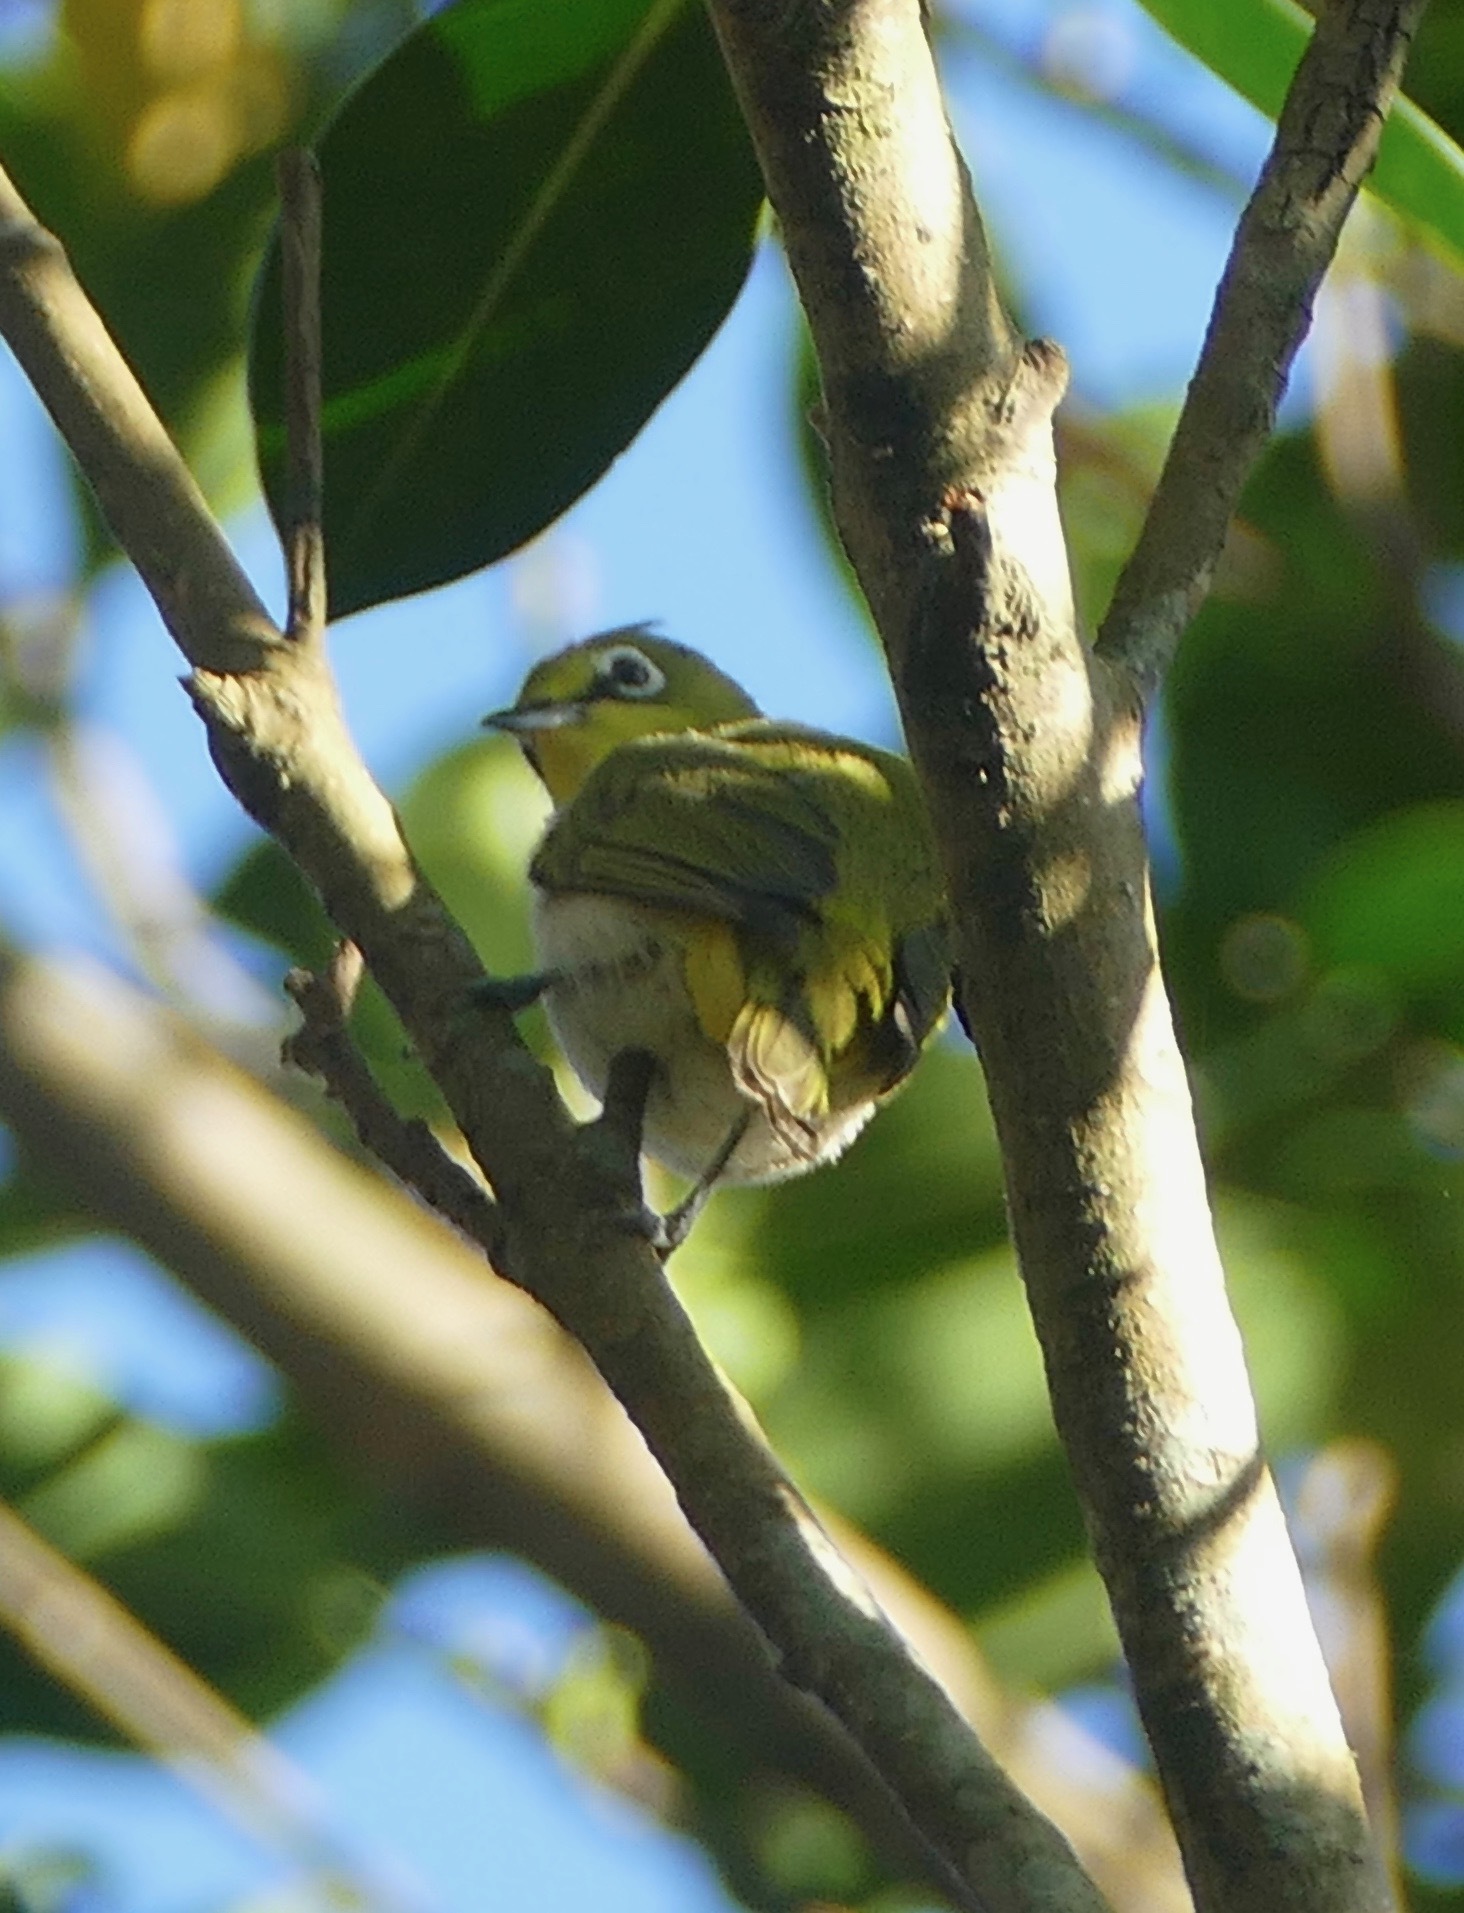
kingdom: Animalia
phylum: Chordata
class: Aves
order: Passeriformes
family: Zosteropidae
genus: Zosterops
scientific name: Zosterops simplex
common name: Swinhoe's white-eye
